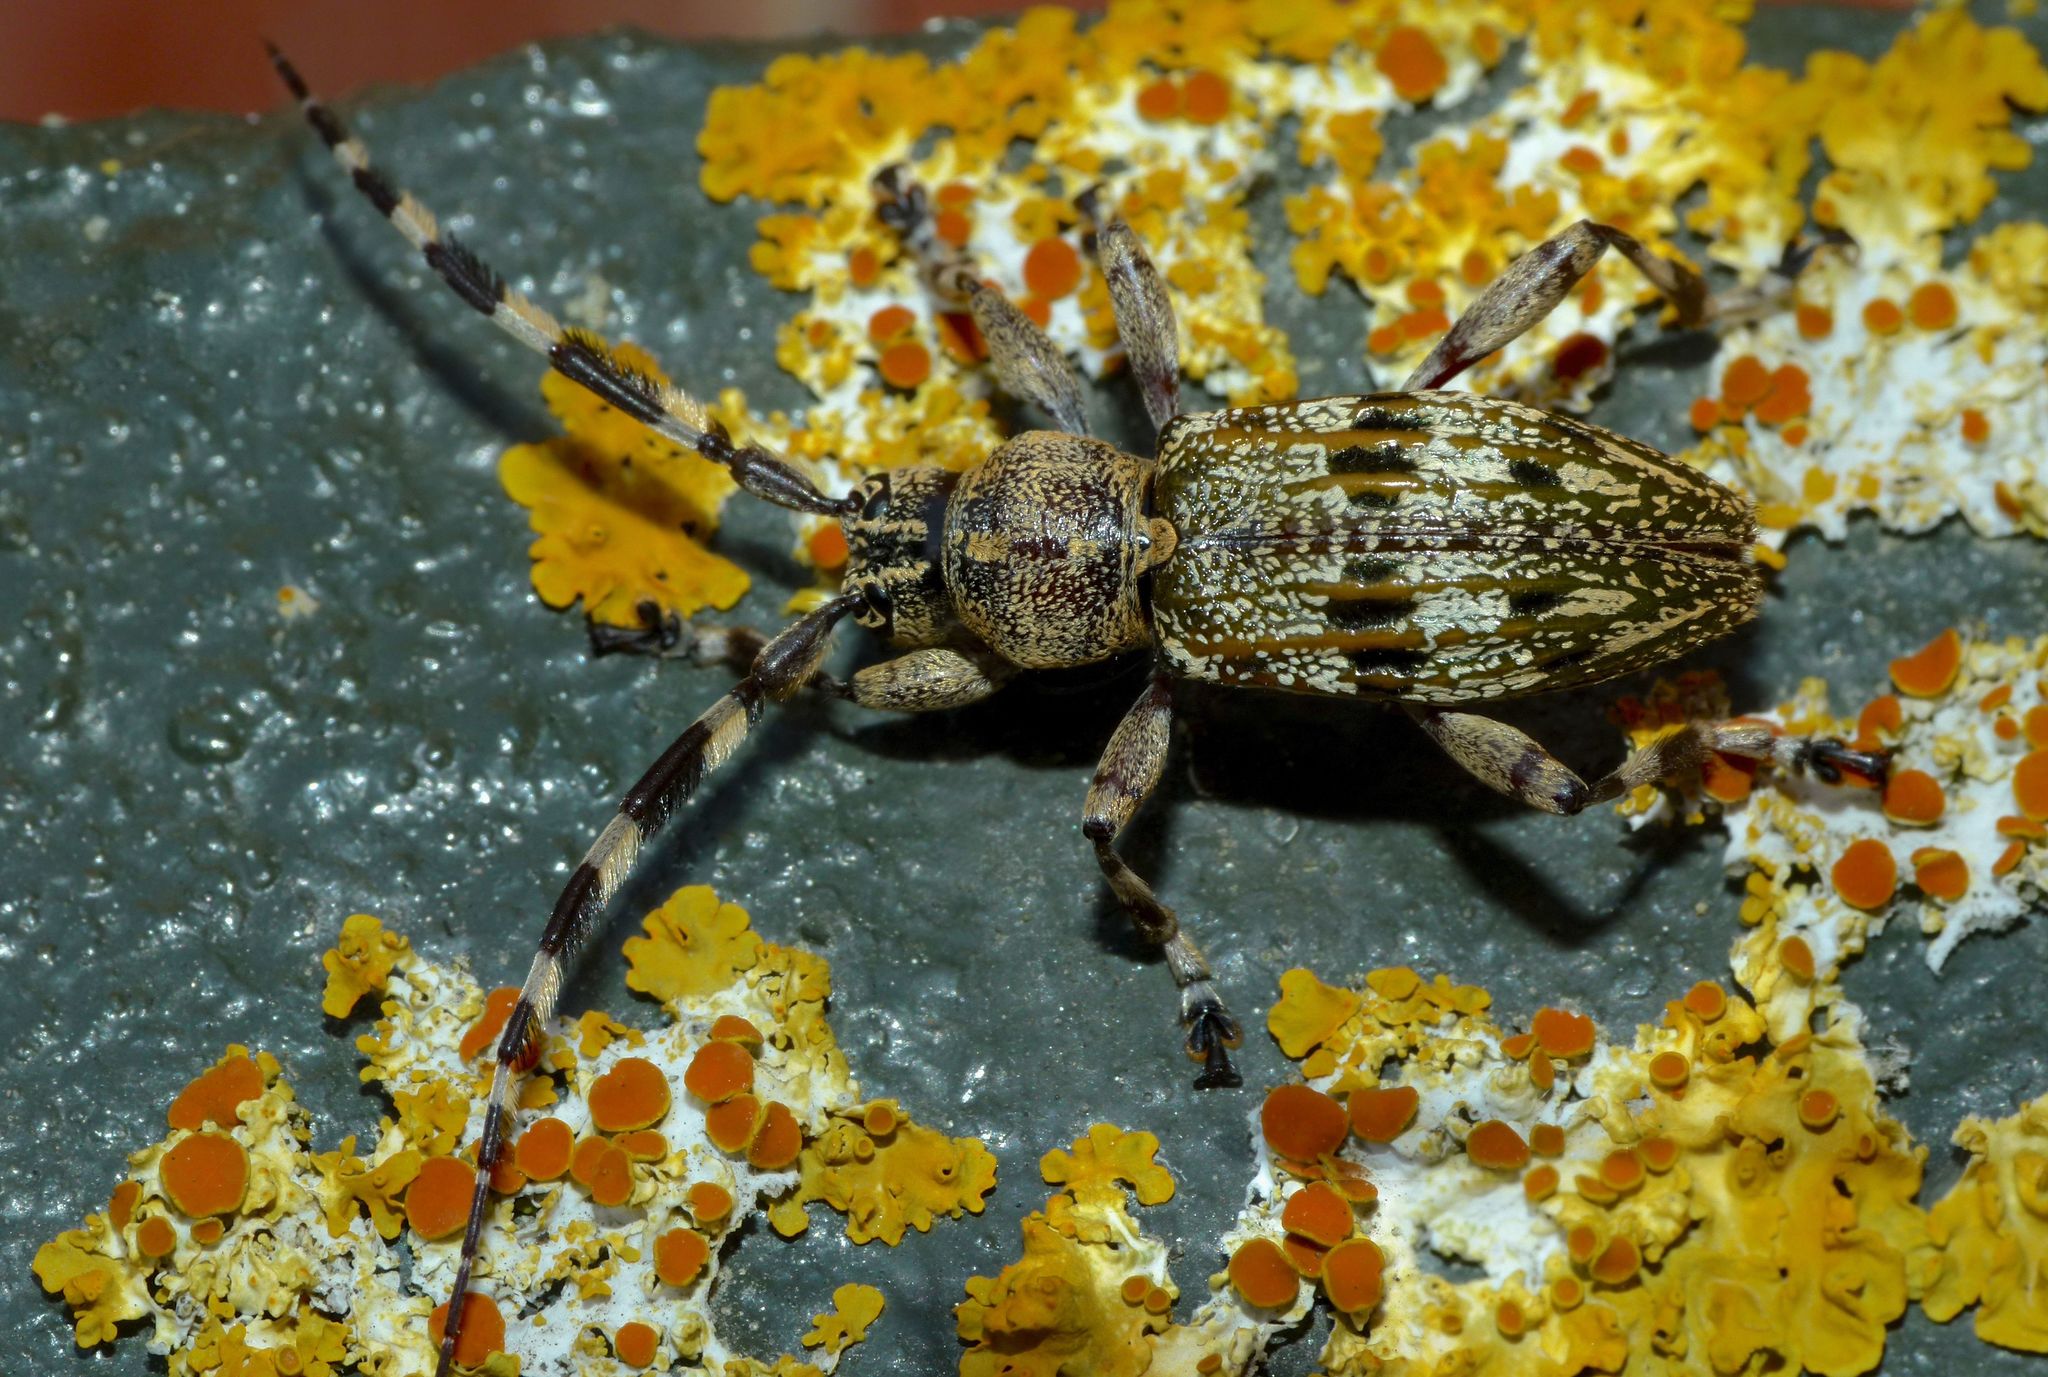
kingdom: Animalia
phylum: Arthropoda
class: Insecta
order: Coleoptera
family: Cerambycidae
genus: Hexatricha
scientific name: Hexatricha pulverulenta
